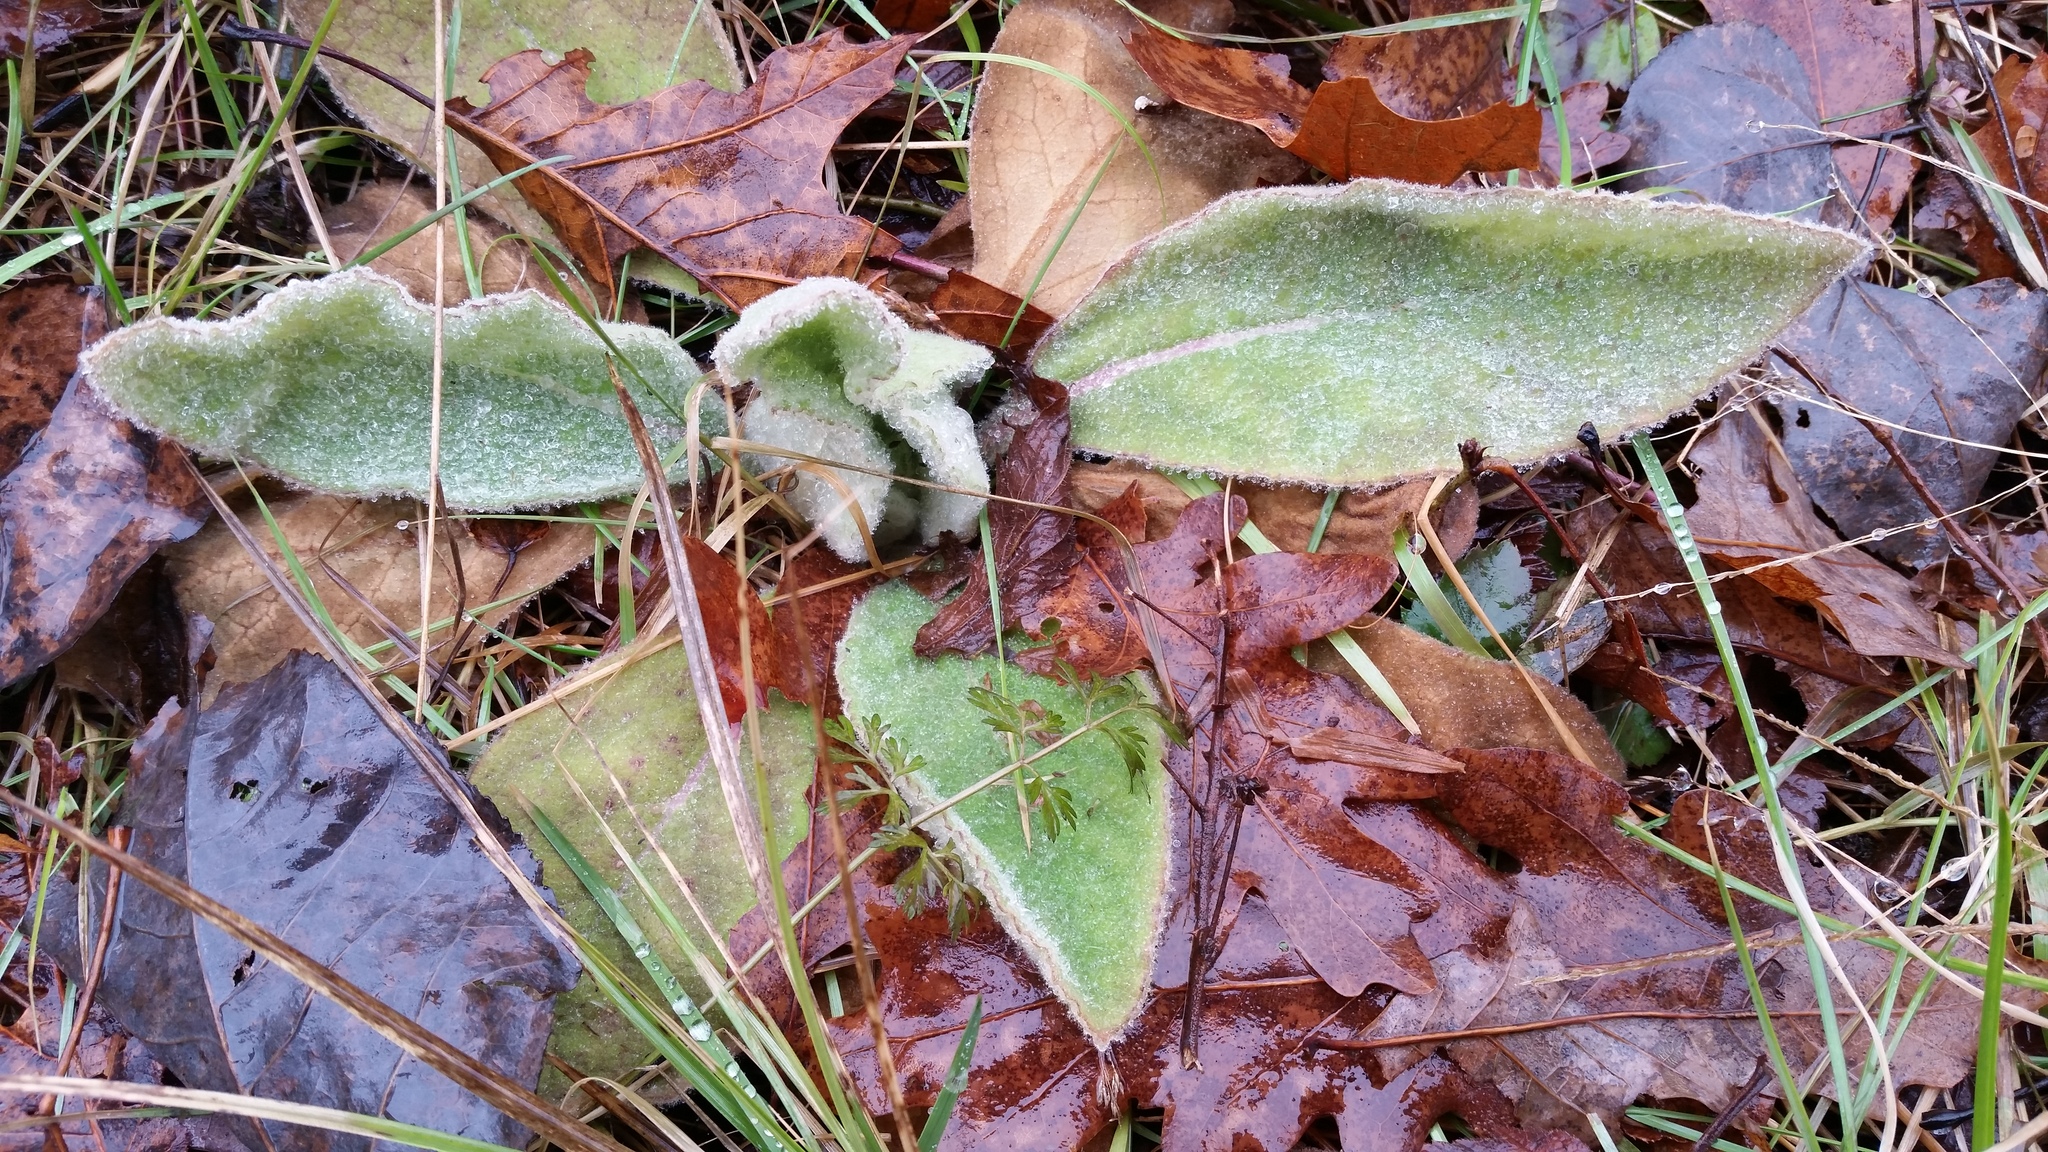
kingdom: Plantae
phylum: Tracheophyta
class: Magnoliopsida
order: Lamiales
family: Scrophulariaceae
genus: Verbascum
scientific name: Verbascum thapsus
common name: Common mullein
